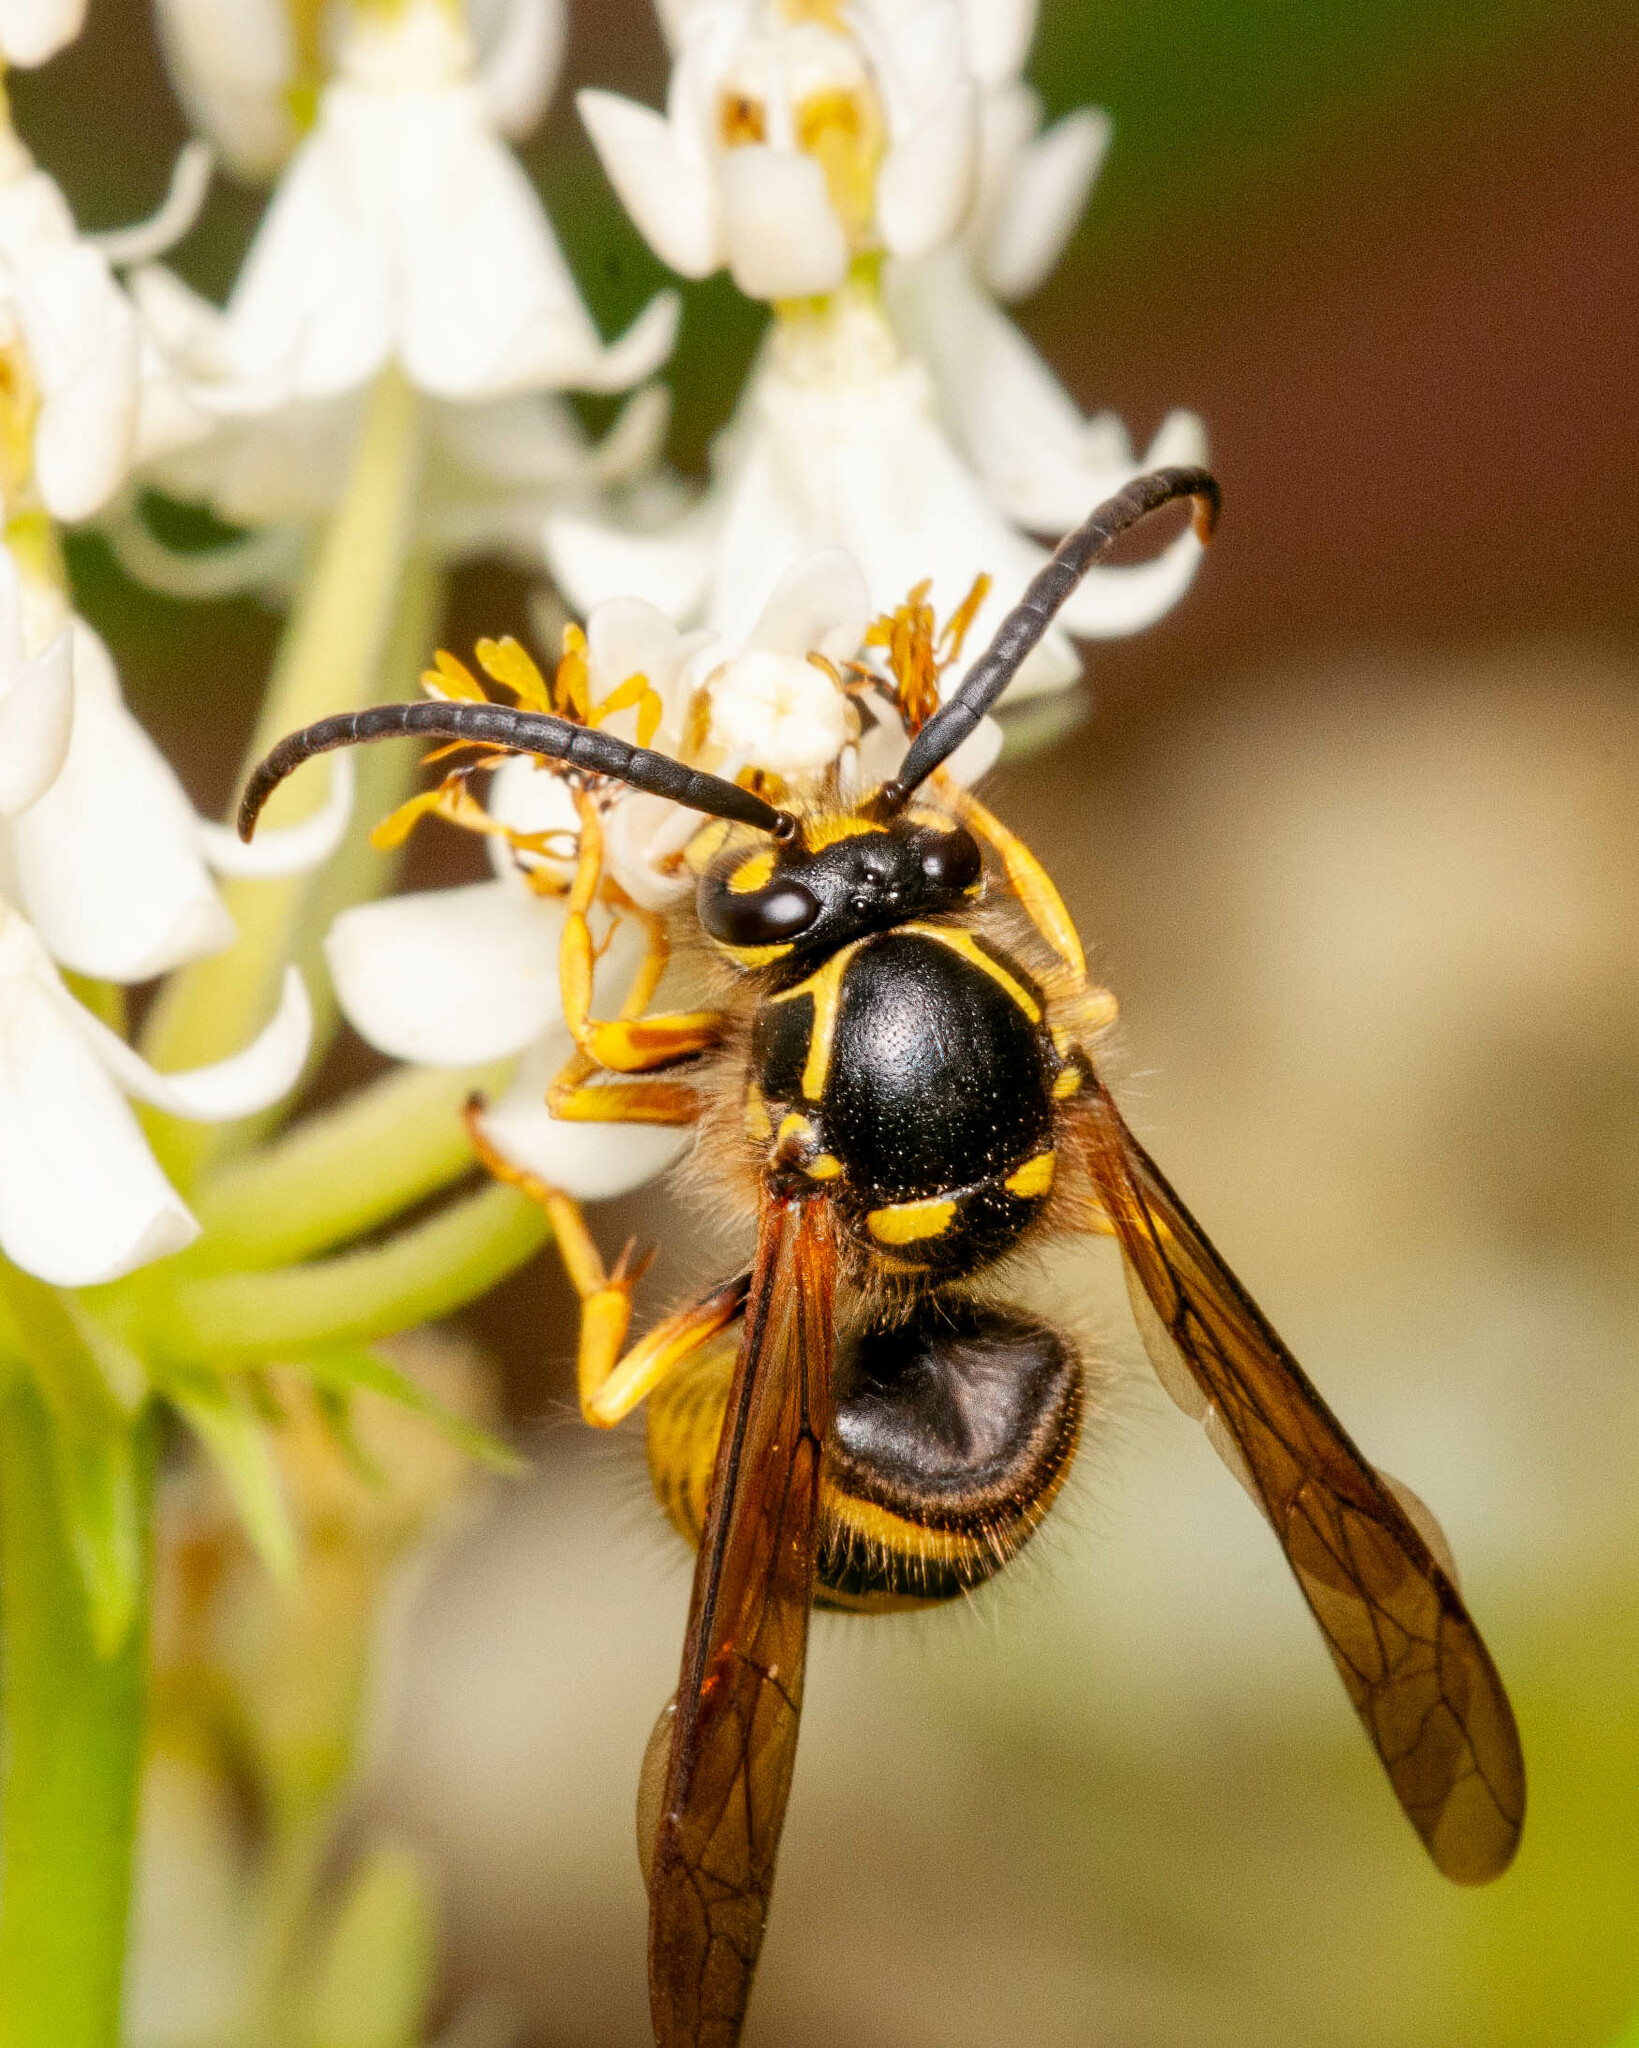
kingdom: Animalia
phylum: Arthropoda
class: Insecta
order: Hymenoptera
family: Vespidae
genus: Dolichovespula
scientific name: Dolichovespula arenaria
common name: Aerial yellowjacket
